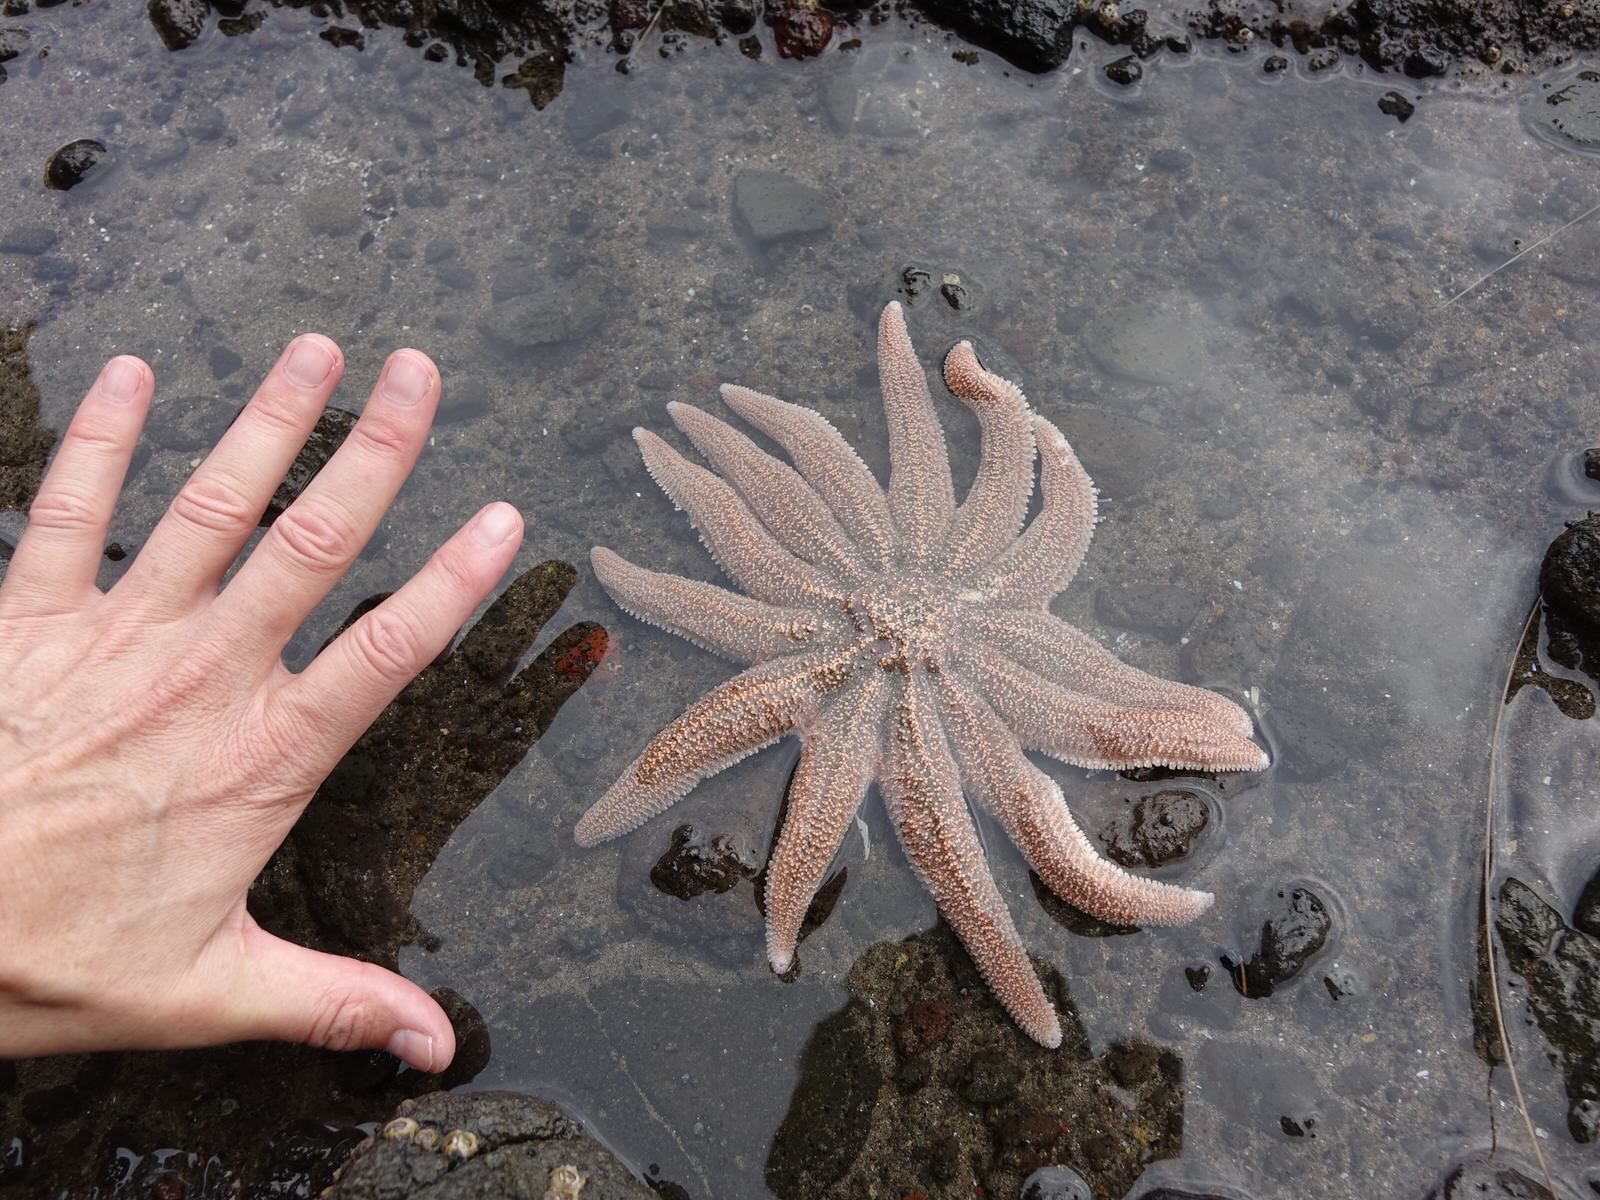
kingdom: Animalia
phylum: Echinodermata
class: Asteroidea
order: Forcipulatida
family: Stichasteridae
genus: Stichaster
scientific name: Stichaster australis
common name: Reef starfish
